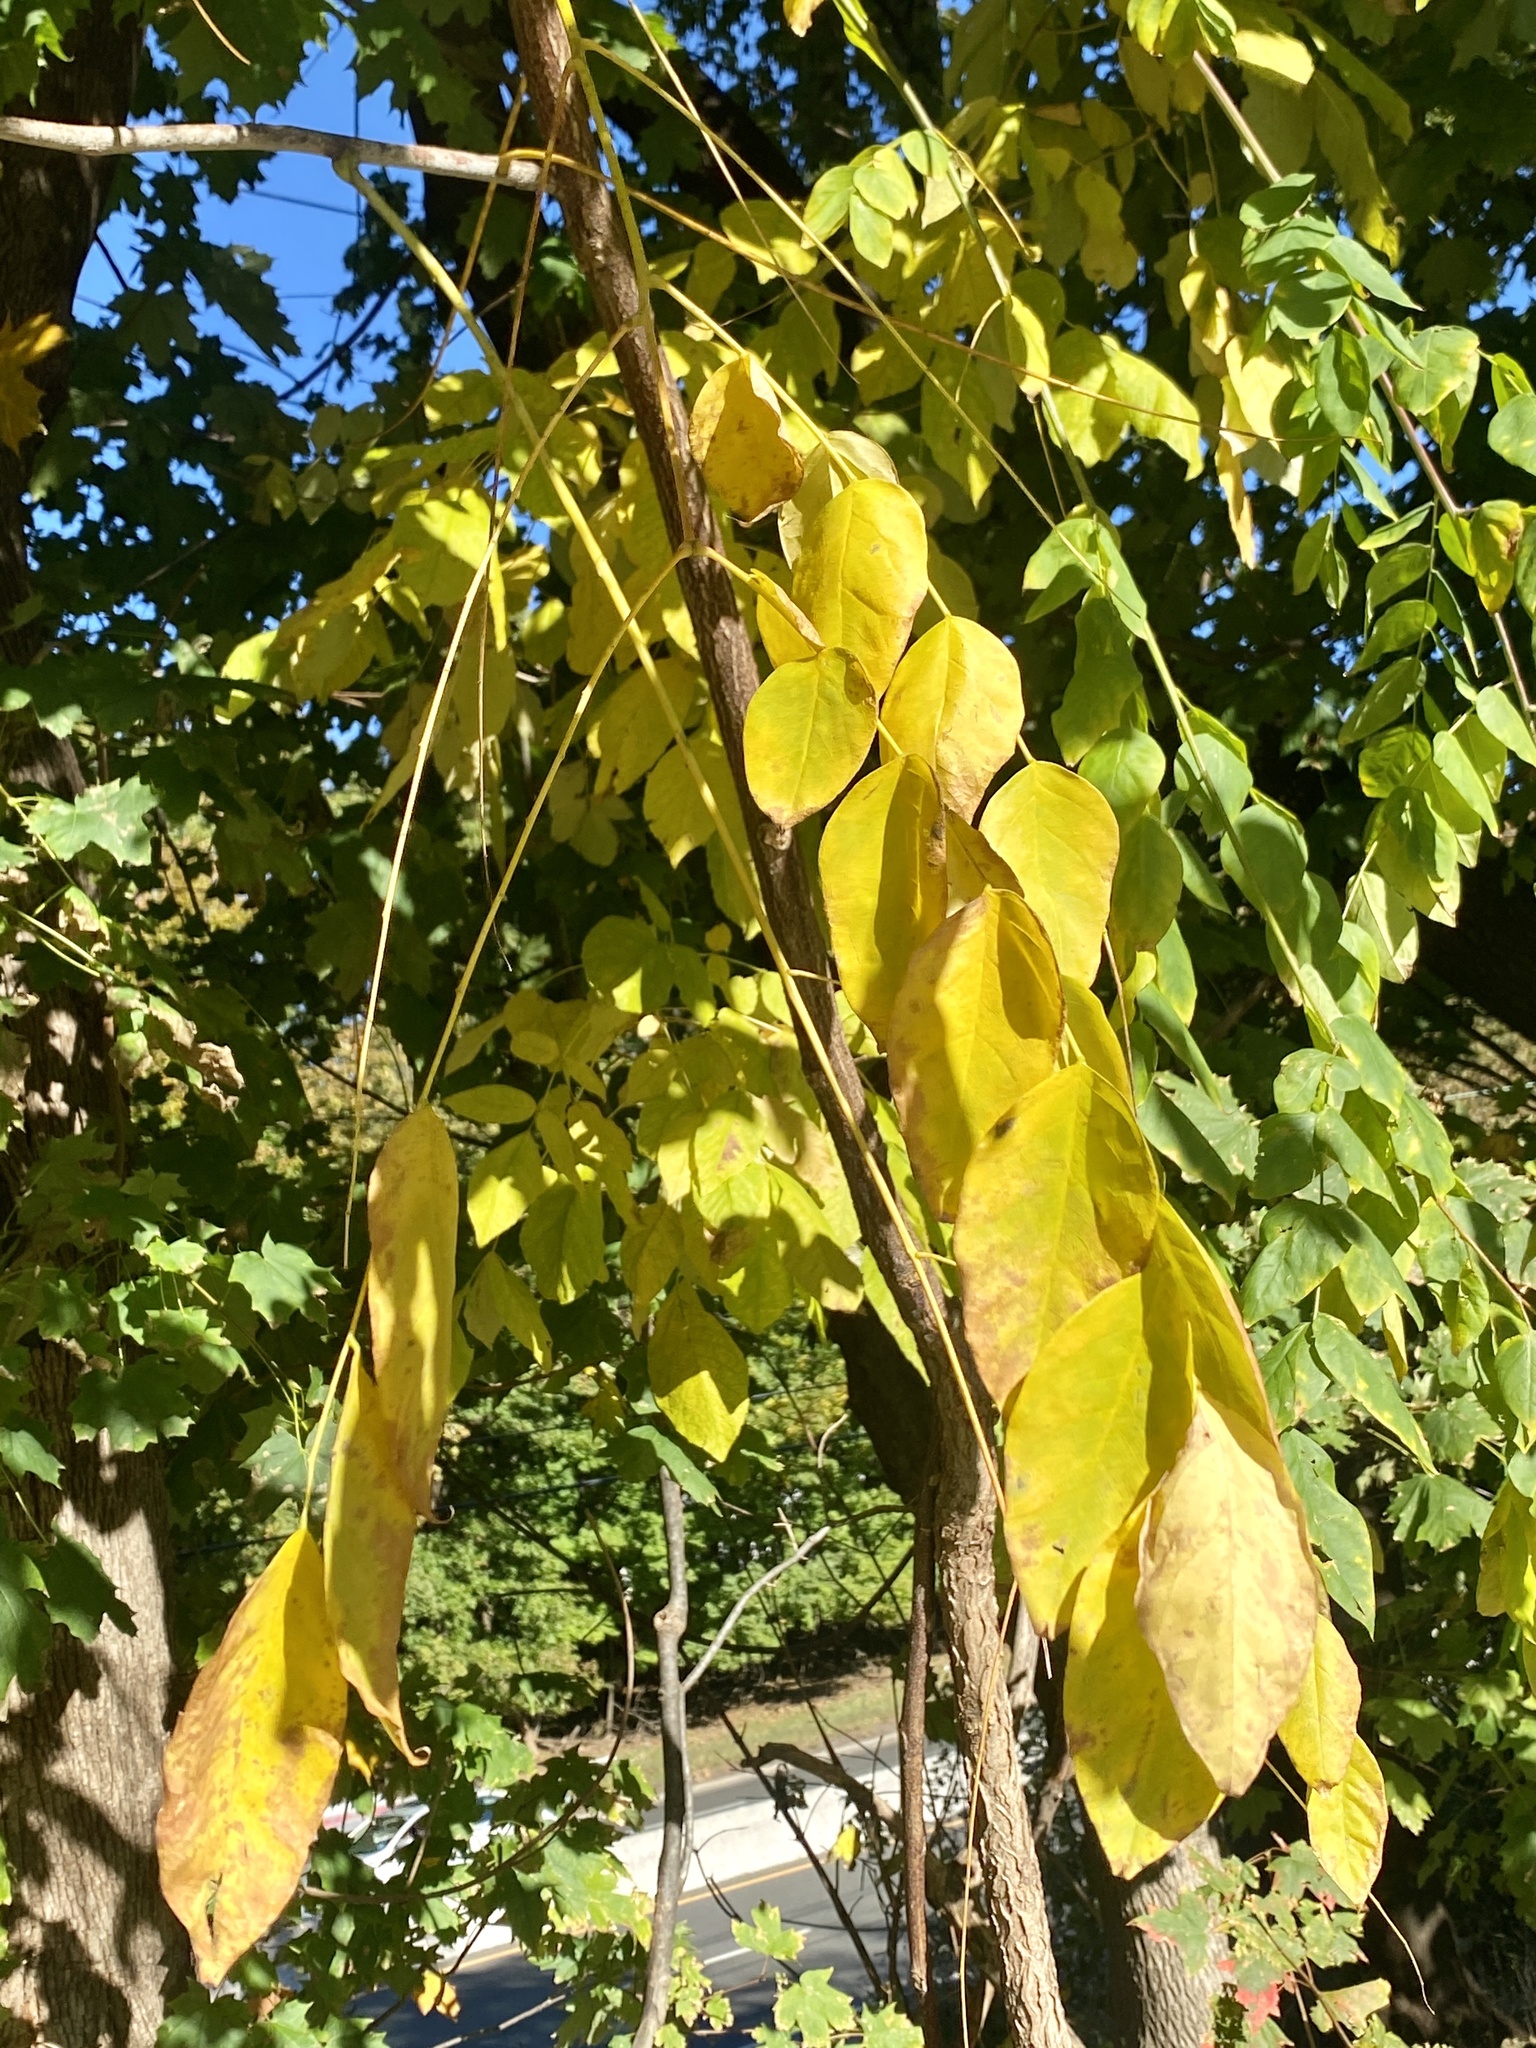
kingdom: Plantae
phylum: Tracheophyta
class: Magnoliopsida
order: Fabales
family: Fabaceae
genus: Gymnocladus
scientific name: Gymnocladus dioicus
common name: Kentucky coffee-tree
